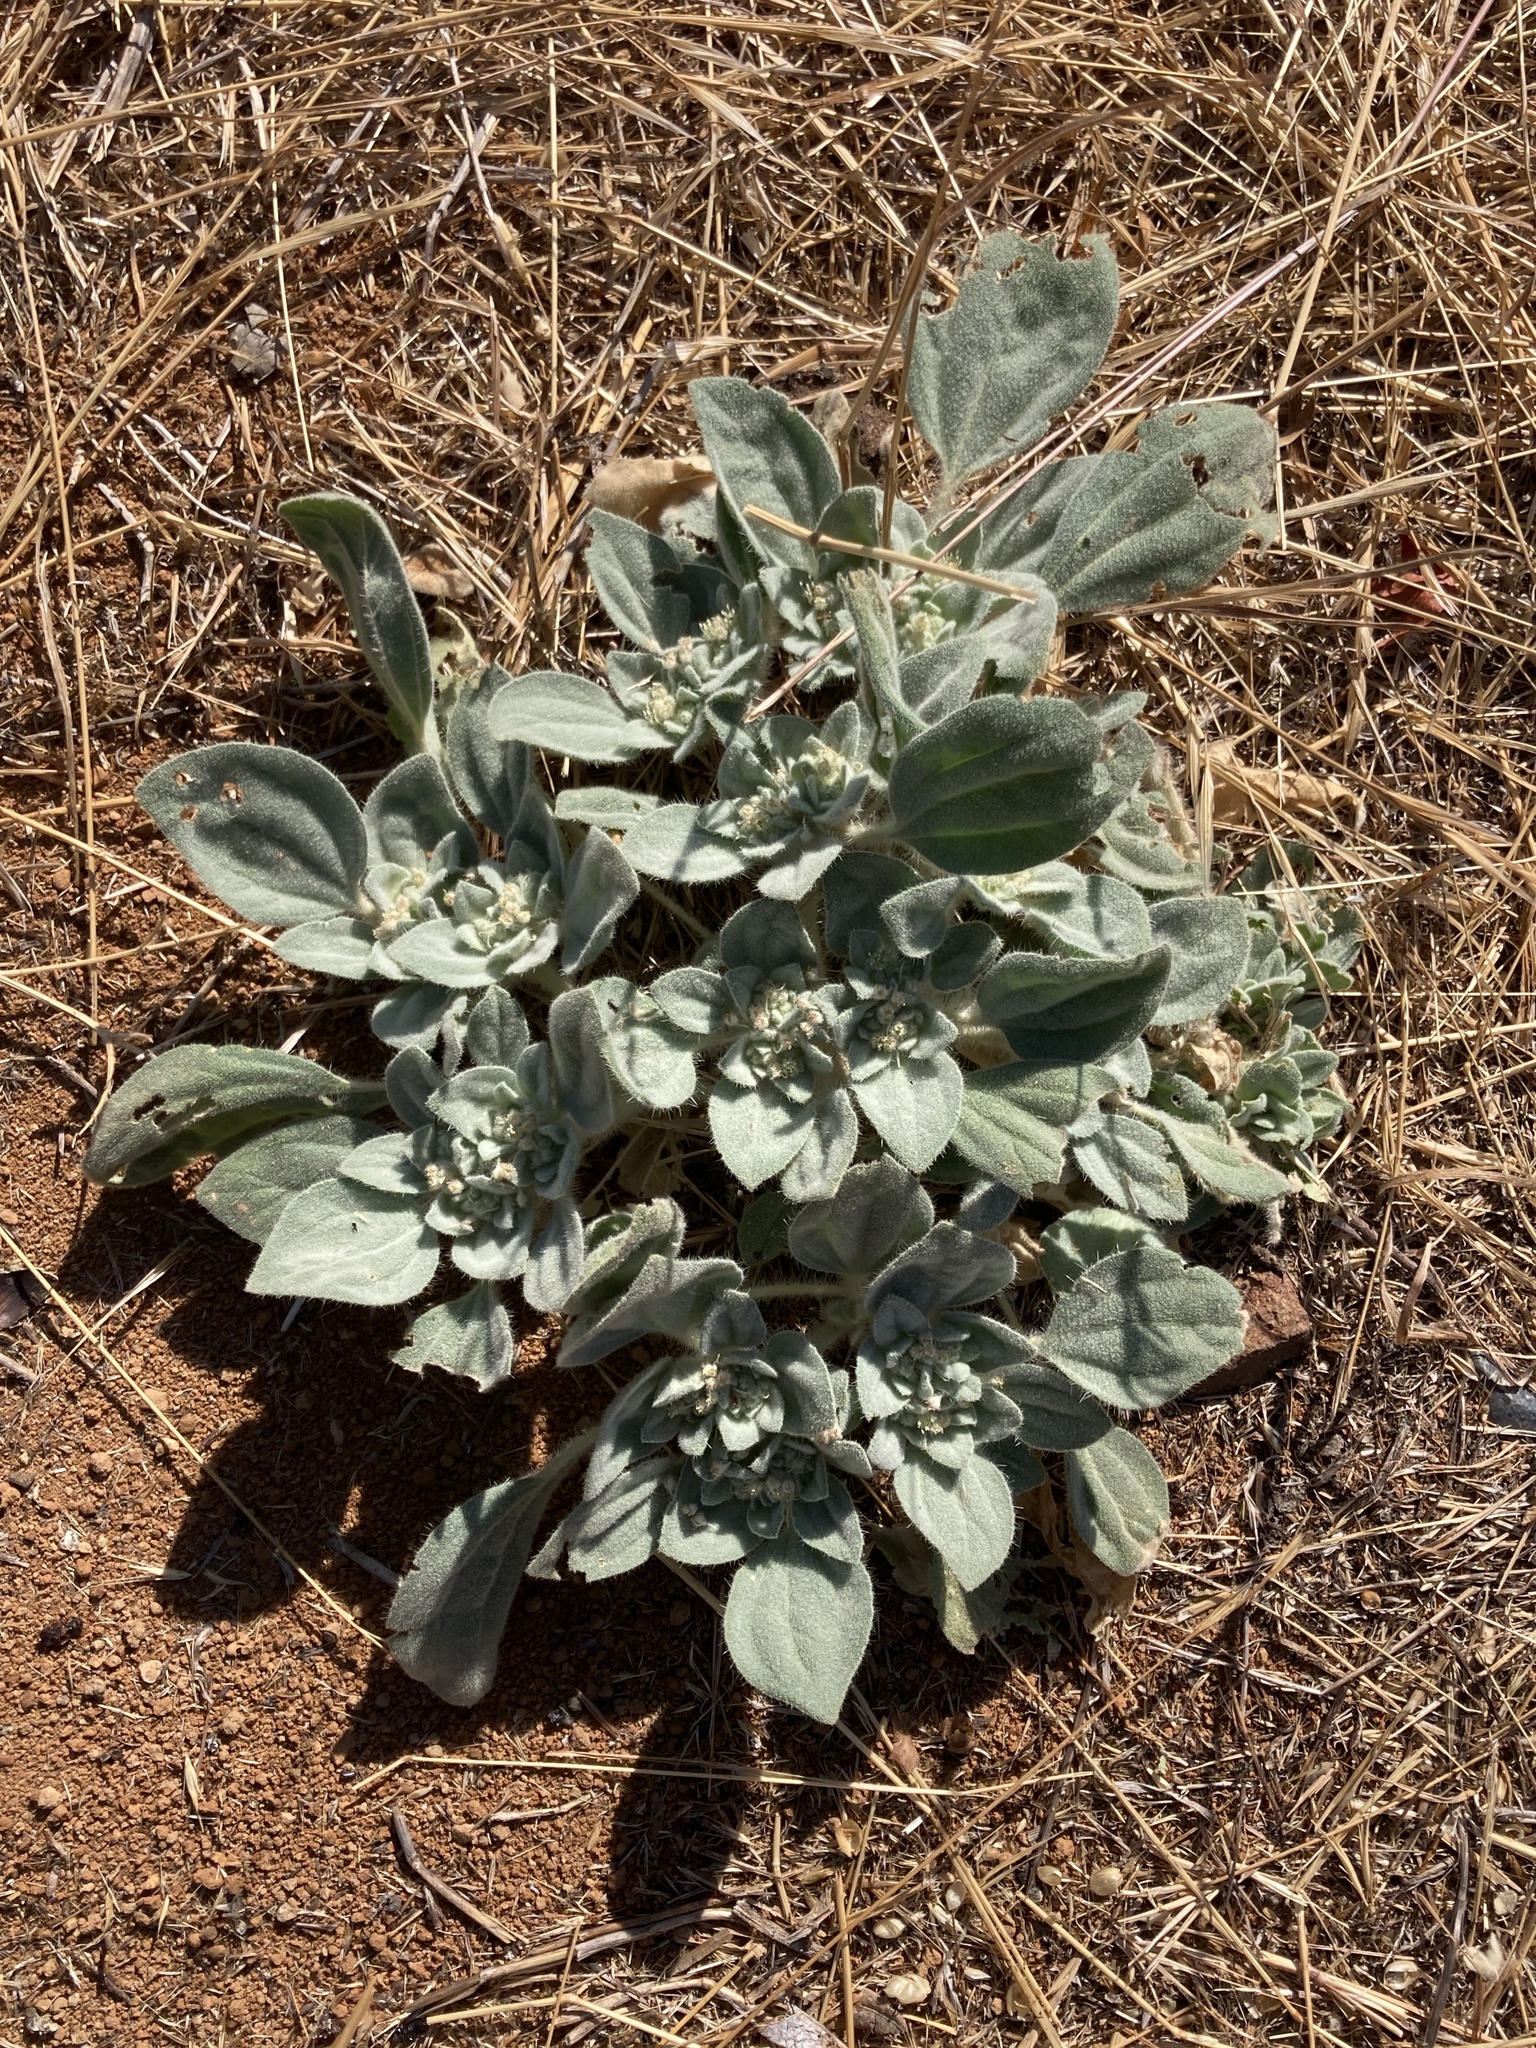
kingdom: Plantae
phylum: Tracheophyta
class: Magnoliopsida
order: Malpighiales
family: Euphorbiaceae
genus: Croton
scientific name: Croton setiger
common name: Dove weed
